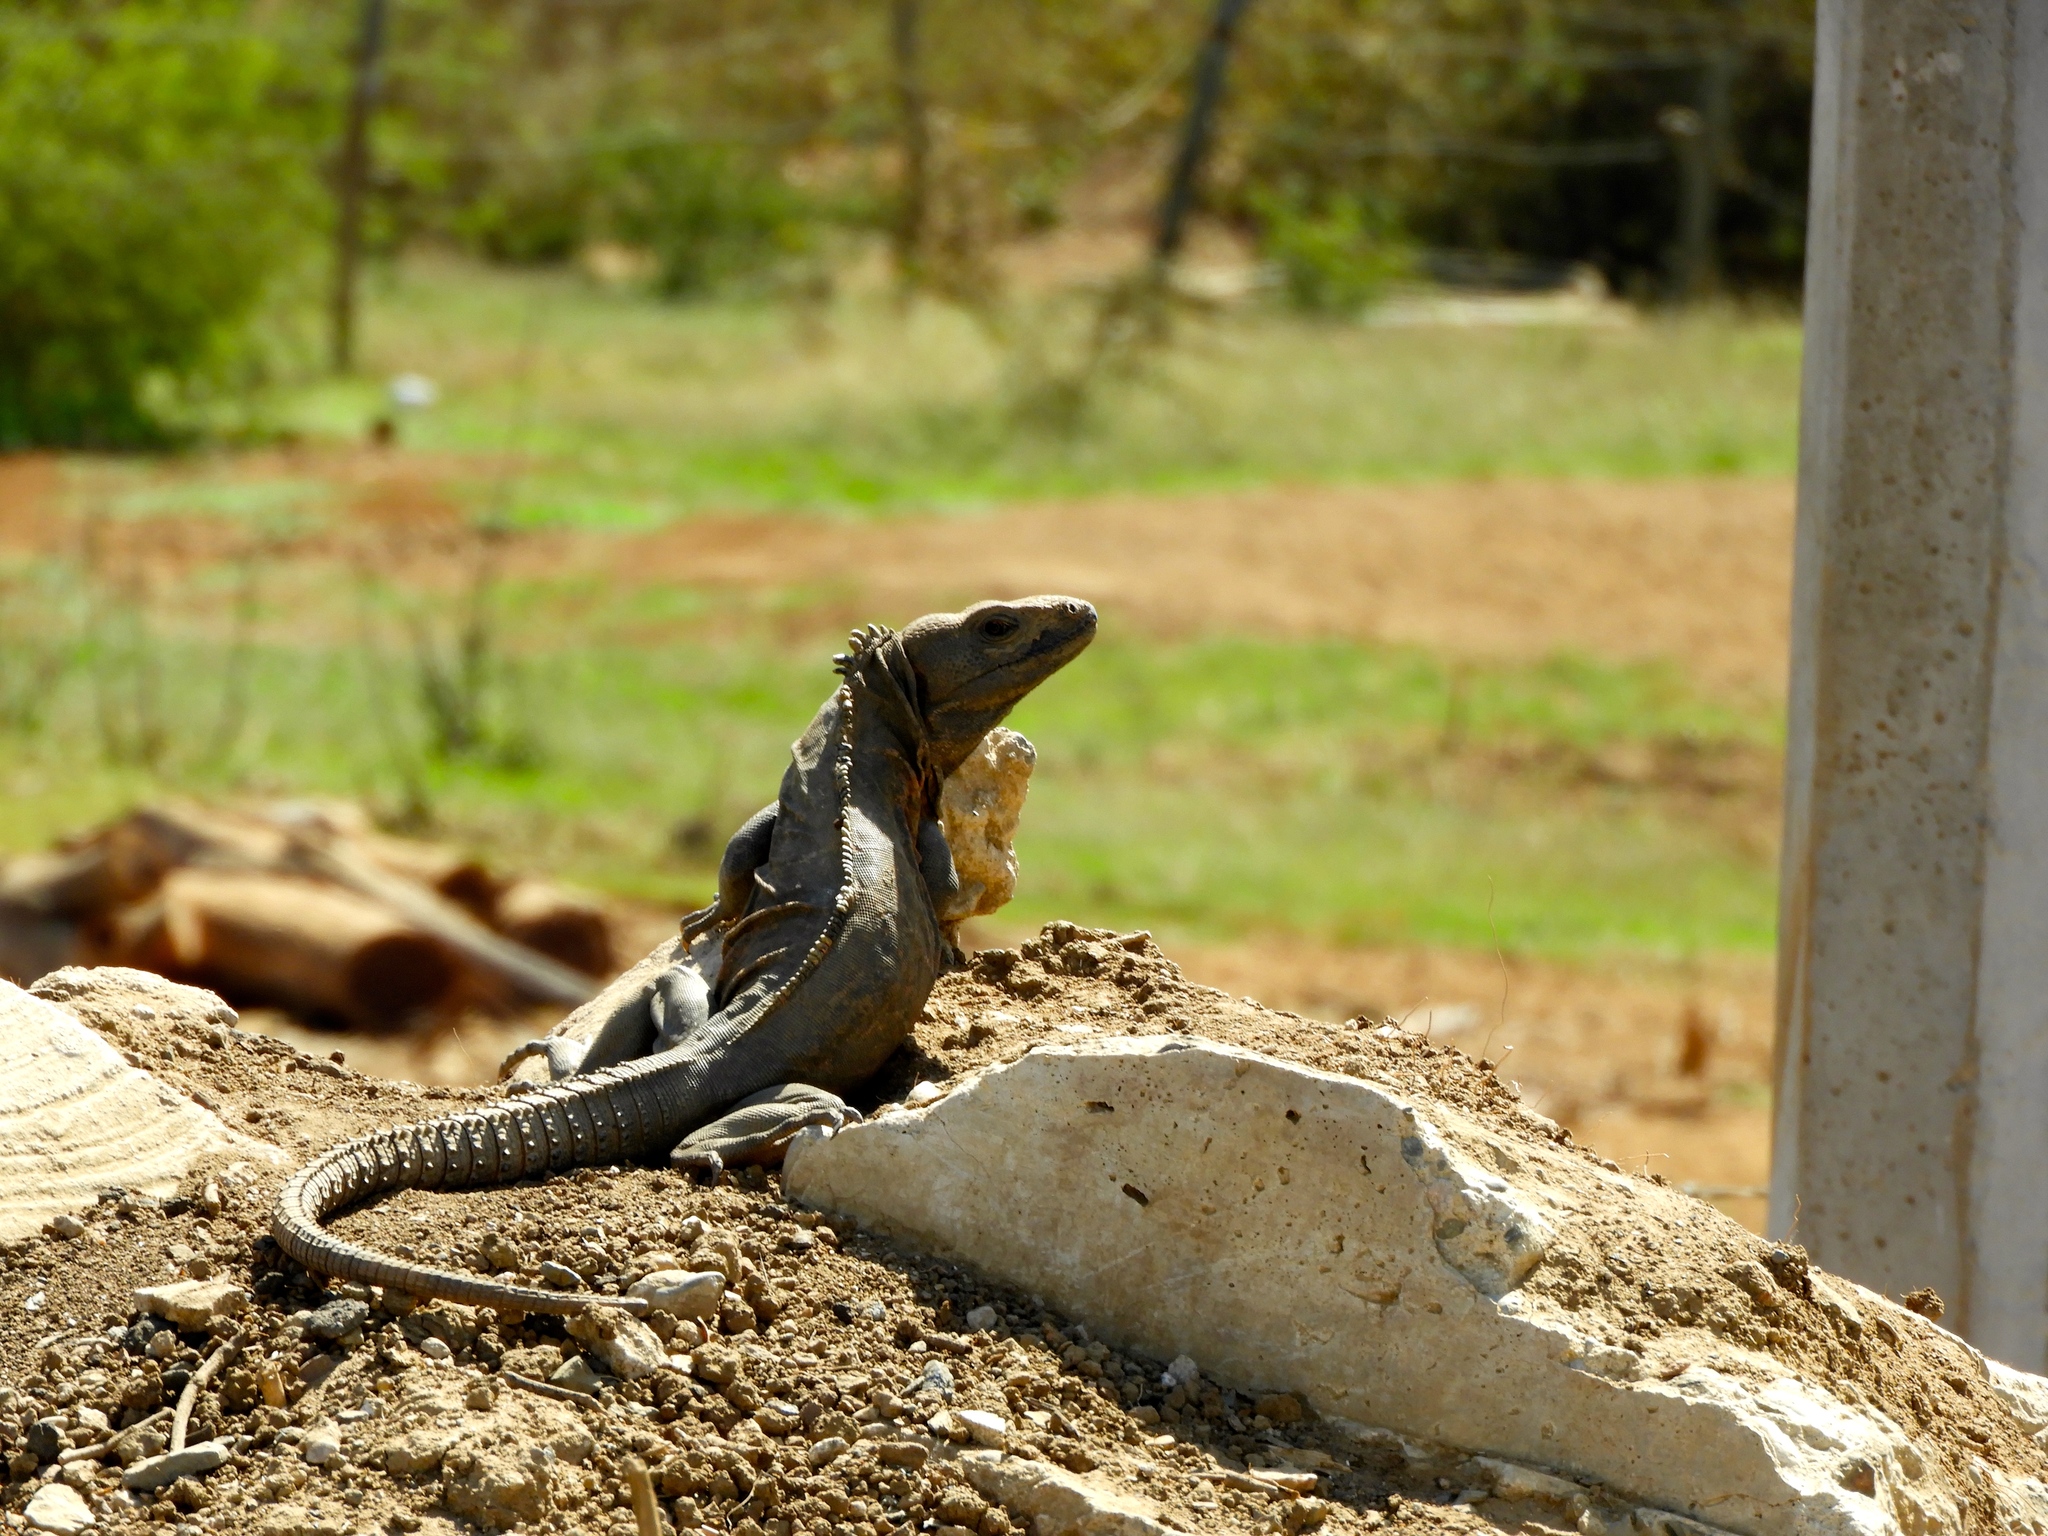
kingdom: Animalia
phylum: Chordata
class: Squamata
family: Iguanidae
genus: Ctenosaura
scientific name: Ctenosaura pectinata
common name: Guerreran spiny-tailed iguana
